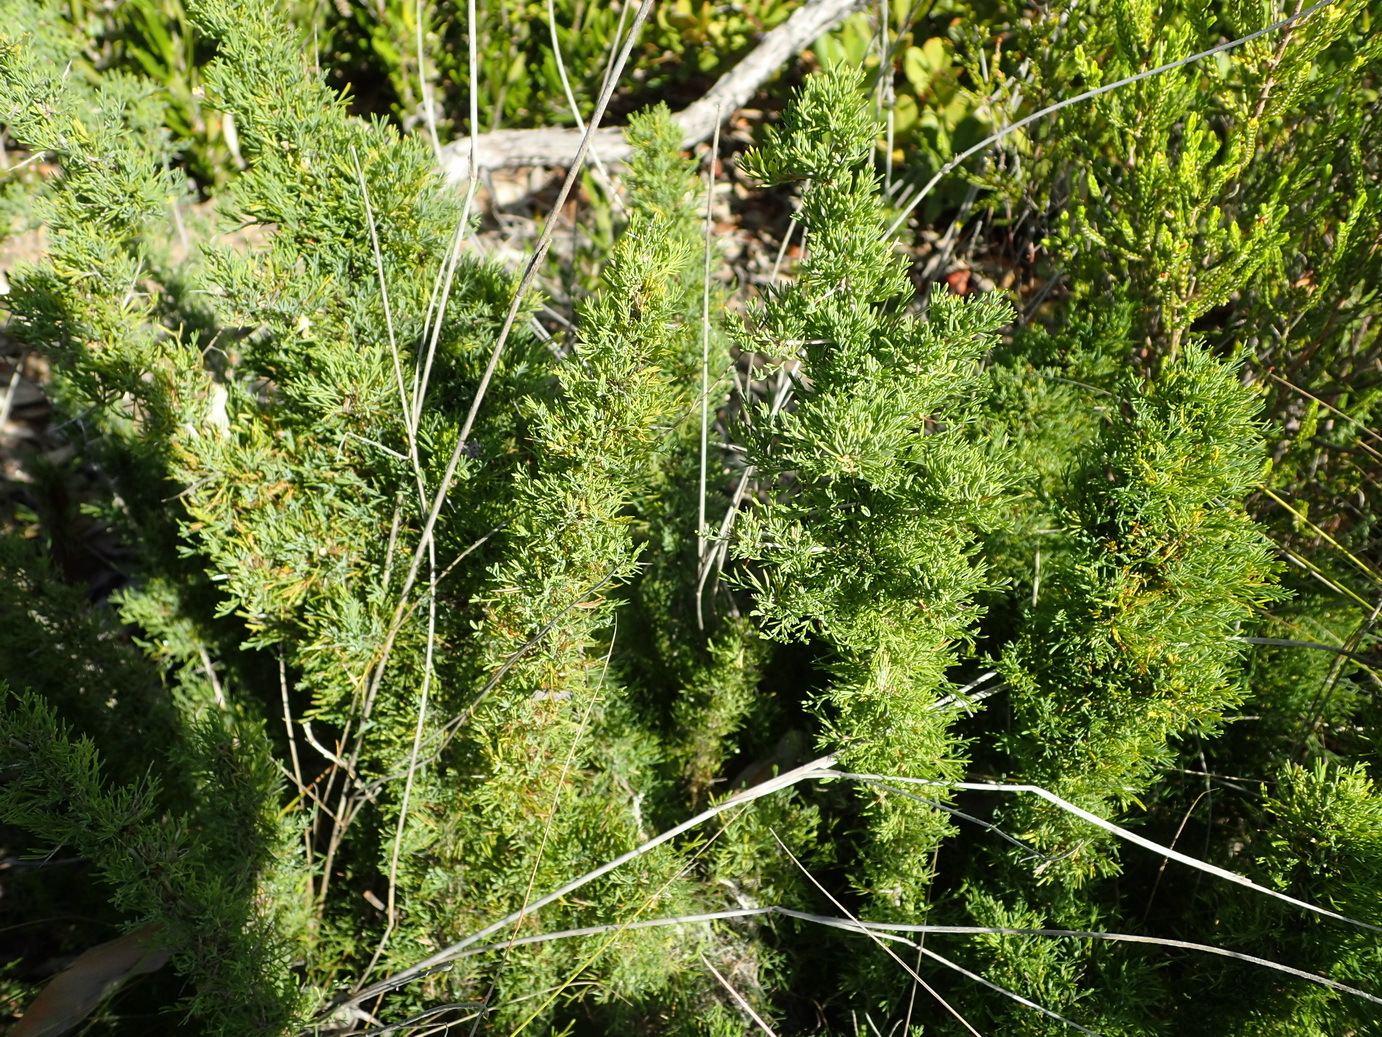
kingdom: Plantae
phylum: Tracheophyta
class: Liliopsida
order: Asparagales
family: Asparagaceae
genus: Asparagus
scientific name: Asparagus suaveolens
